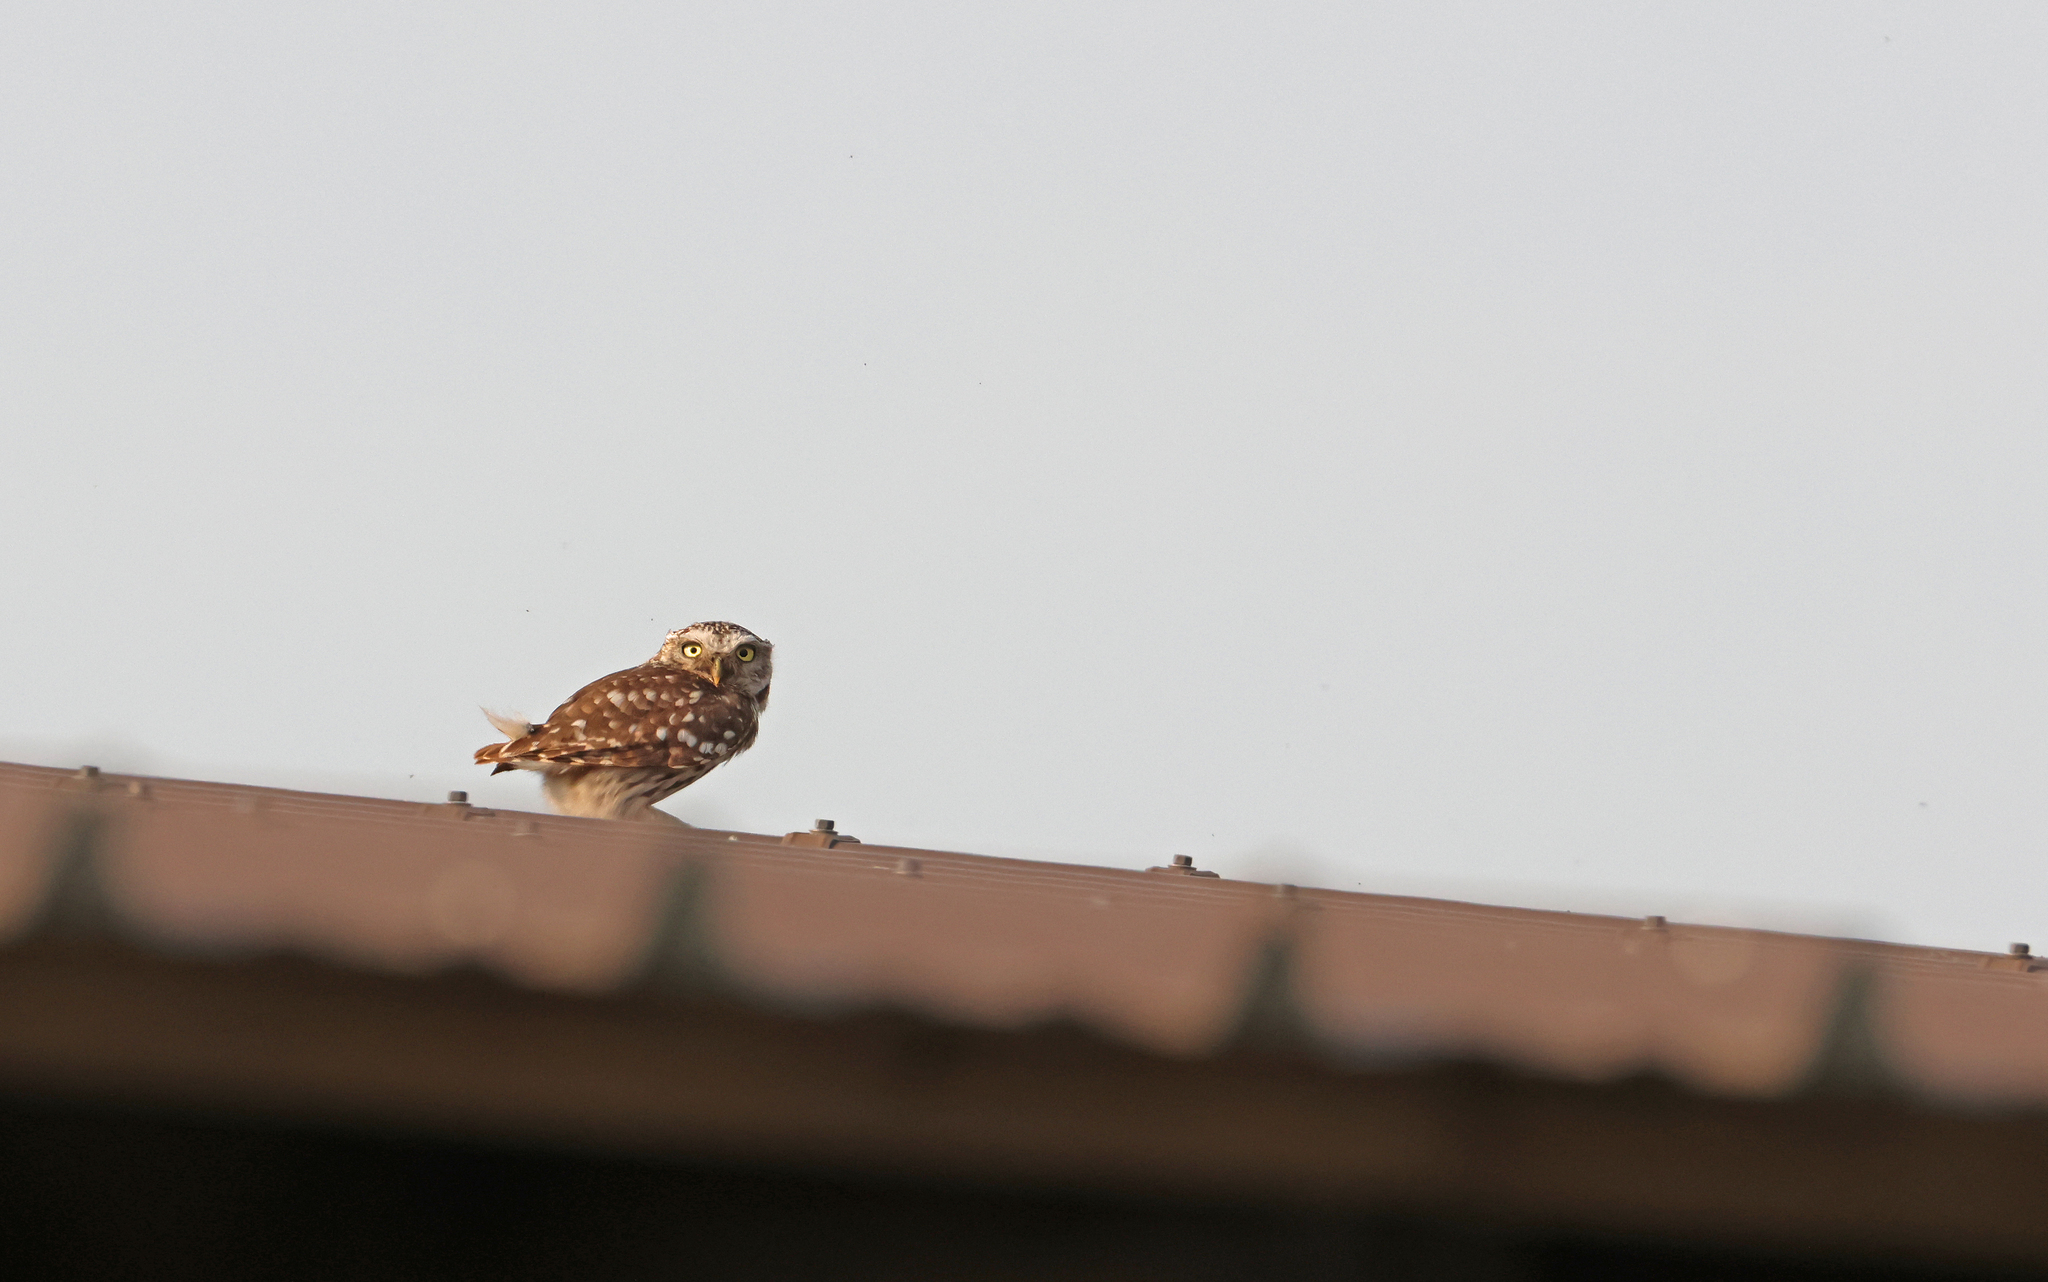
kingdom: Animalia
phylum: Chordata
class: Aves
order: Strigiformes
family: Strigidae
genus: Athene
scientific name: Athene noctua
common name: Little owl
